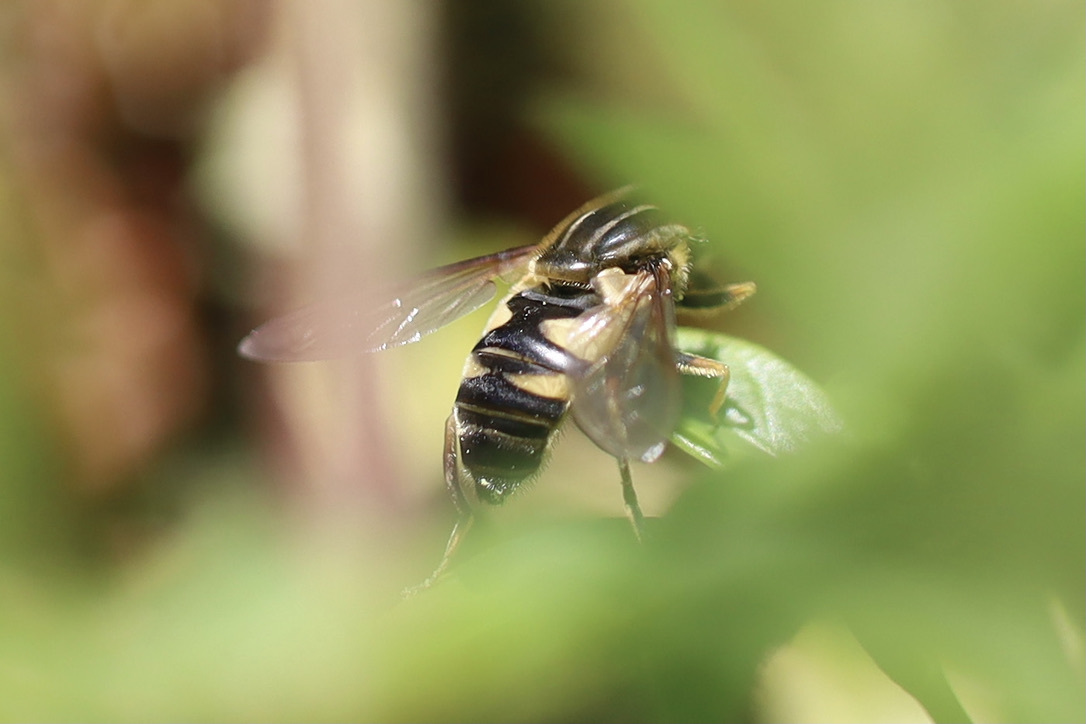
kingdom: Animalia
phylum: Arthropoda
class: Insecta
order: Diptera
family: Syrphidae
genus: Helophilus
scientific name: Helophilus fasciatus
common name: Narrow-headed marsh fly
